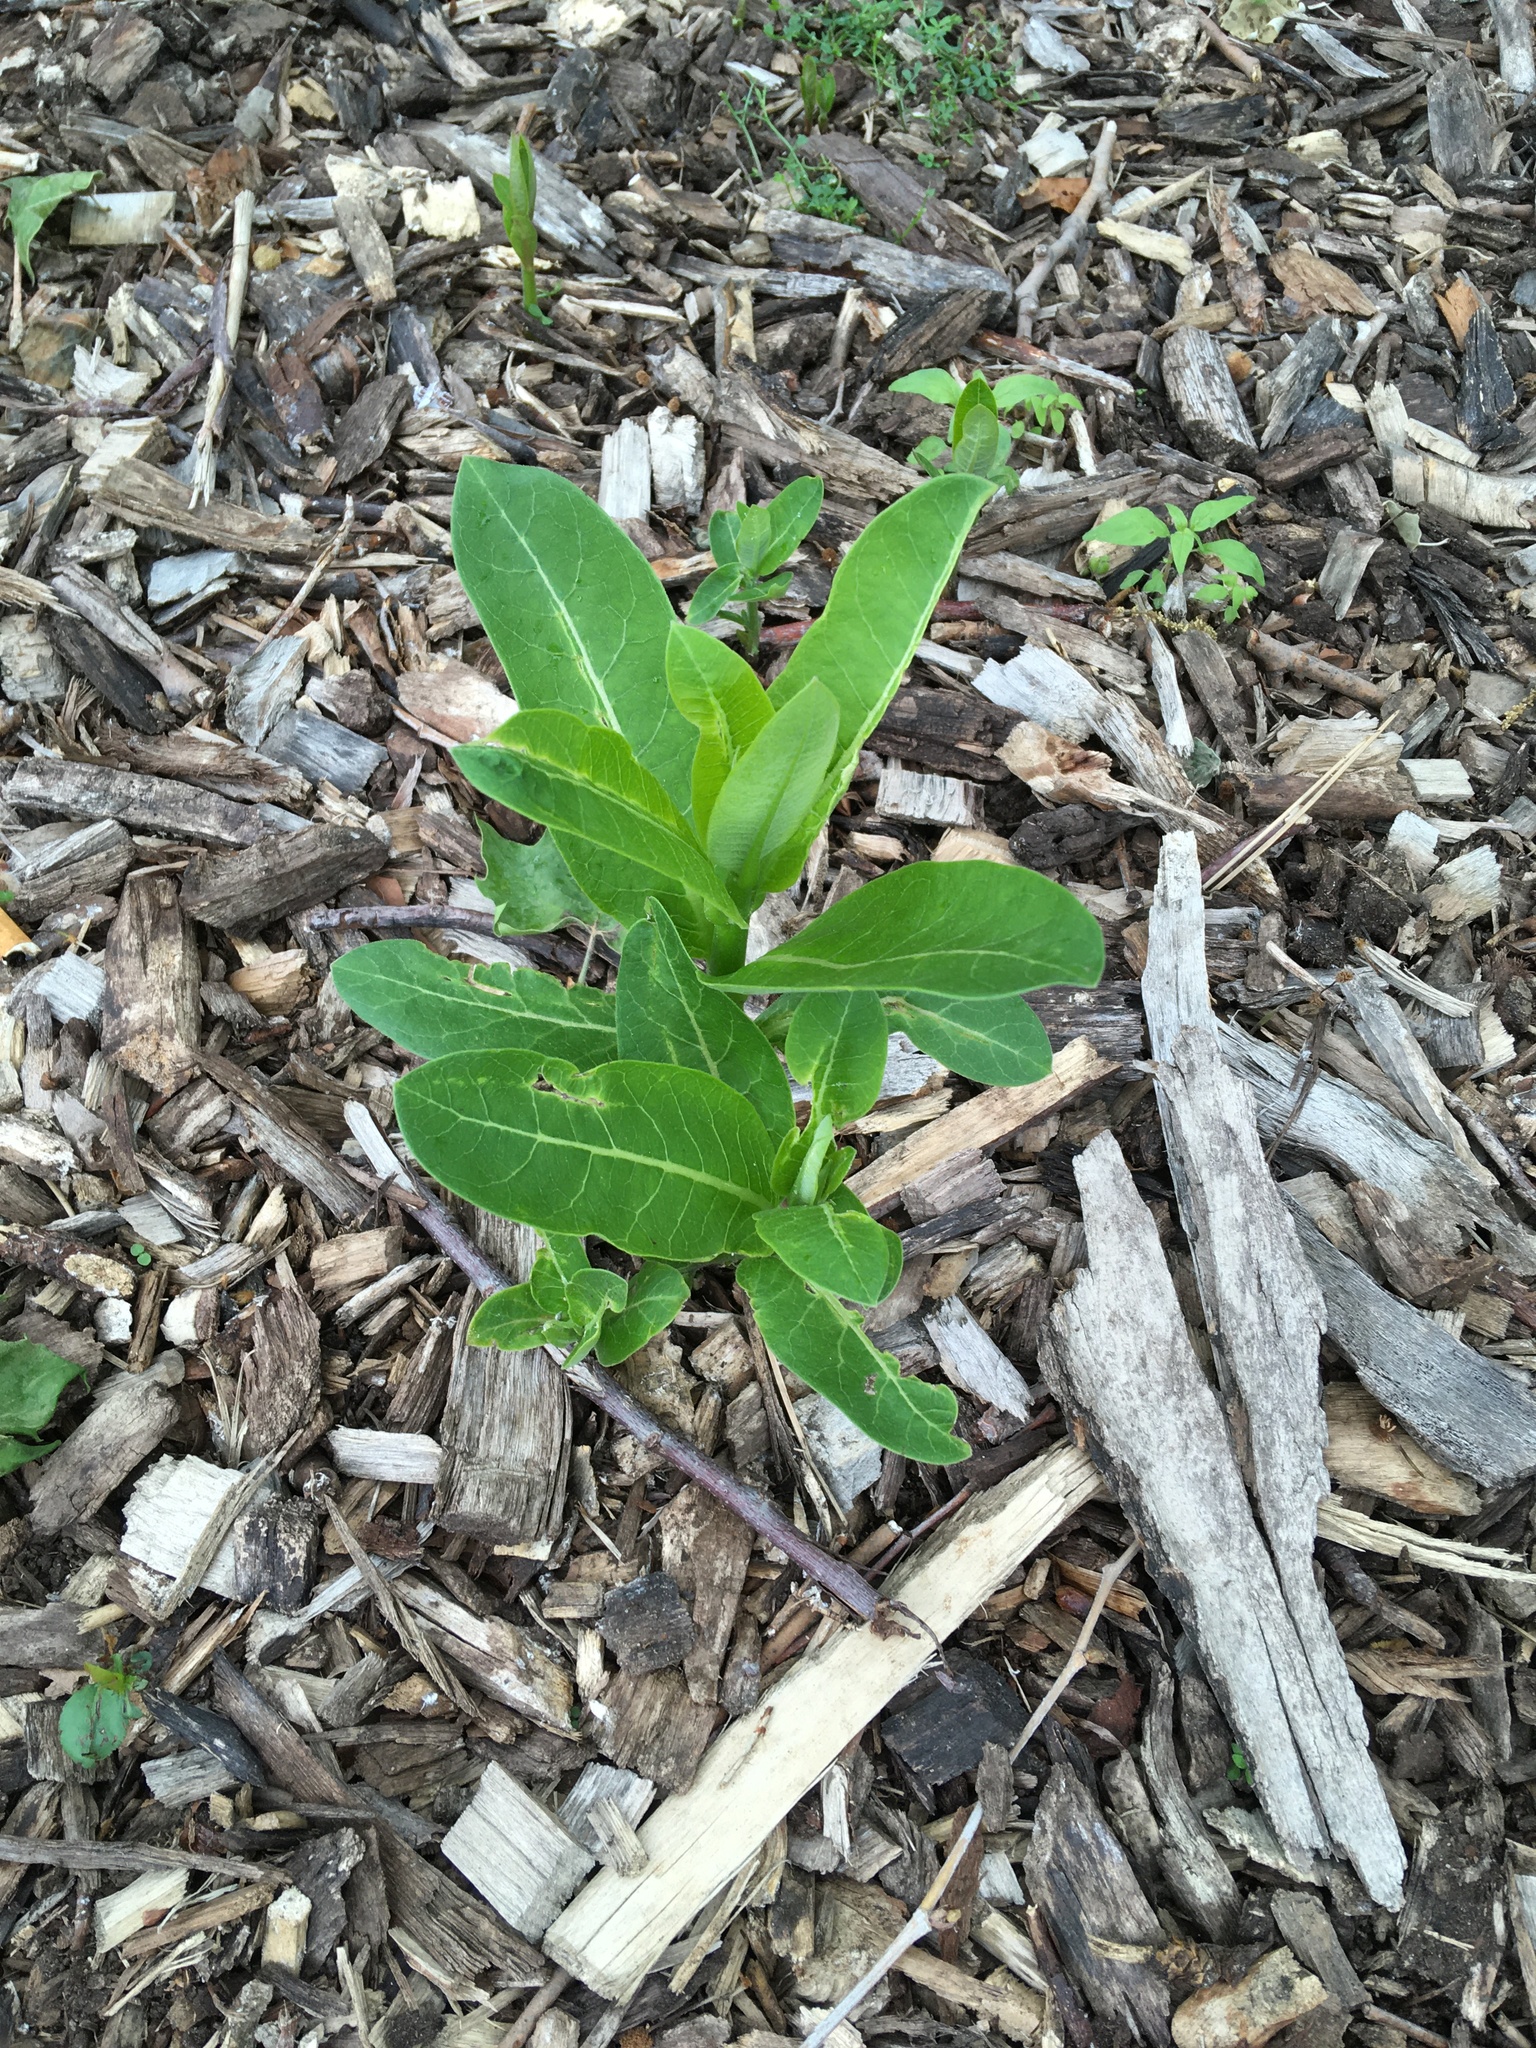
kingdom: Plantae
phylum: Tracheophyta
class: Magnoliopsida
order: Gentianales
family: Apocynaceae
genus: Asclepias
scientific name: Asclepias syriaca
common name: Common milkweed
